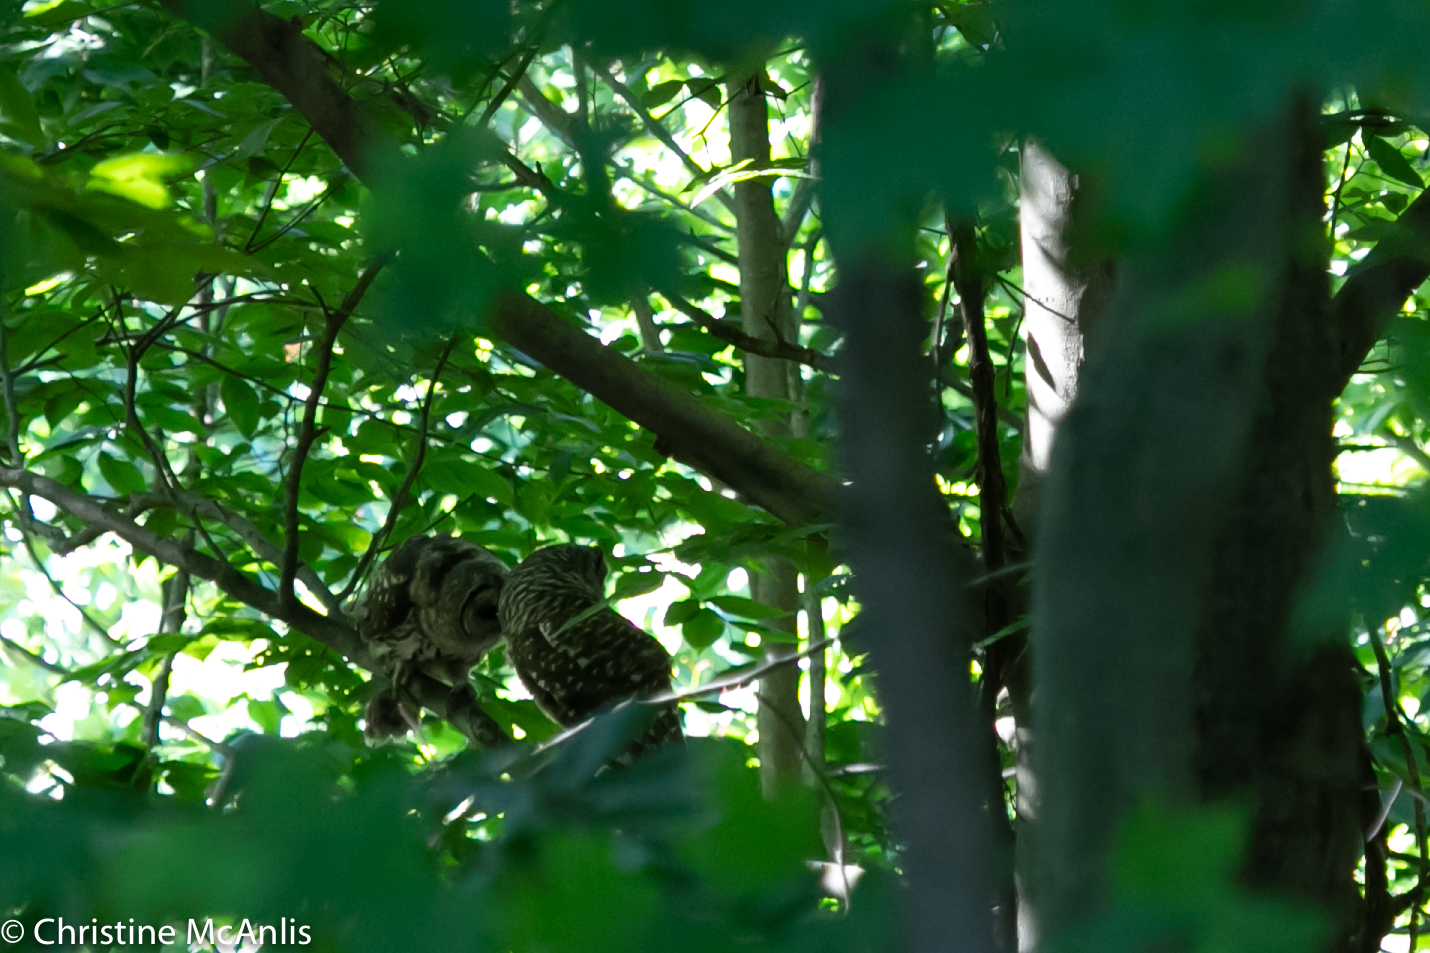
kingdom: Animalia
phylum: Chordata
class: Aves
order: Strigiformes
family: Strigidae
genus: Strix
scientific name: Strix varia
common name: Barred owl
